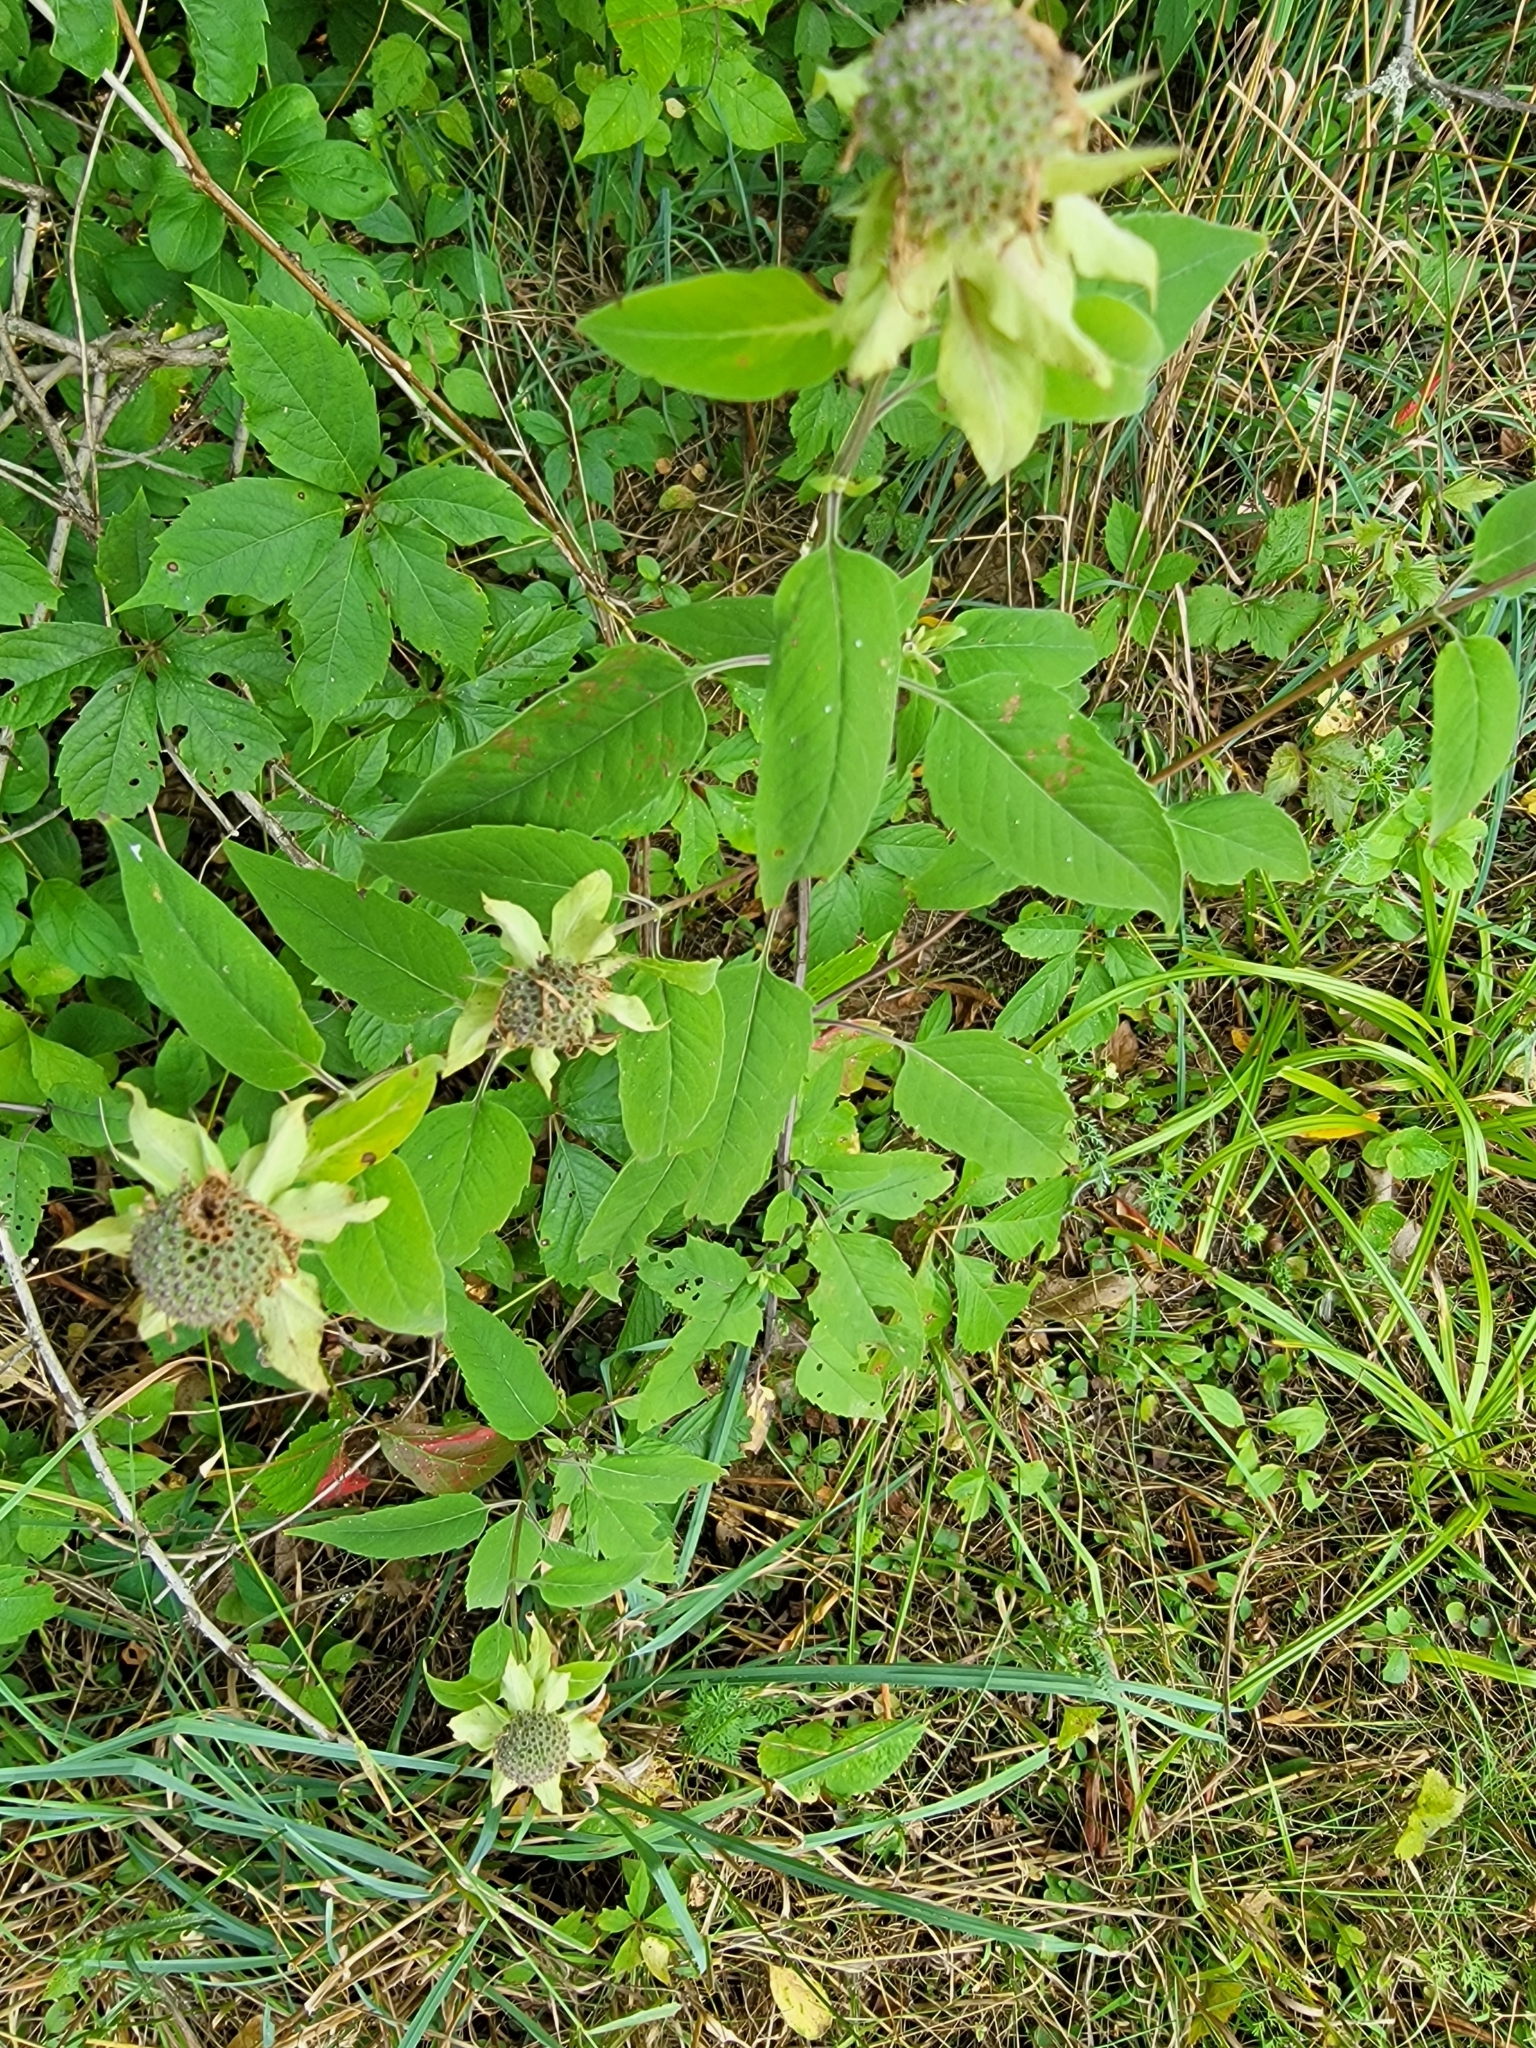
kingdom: Plantae
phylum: Tracheophyta
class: Magnoliopsida
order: Lamiales
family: Lamiaceae
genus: Monarda
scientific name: Monarda fistulosa
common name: Purple beebalm
